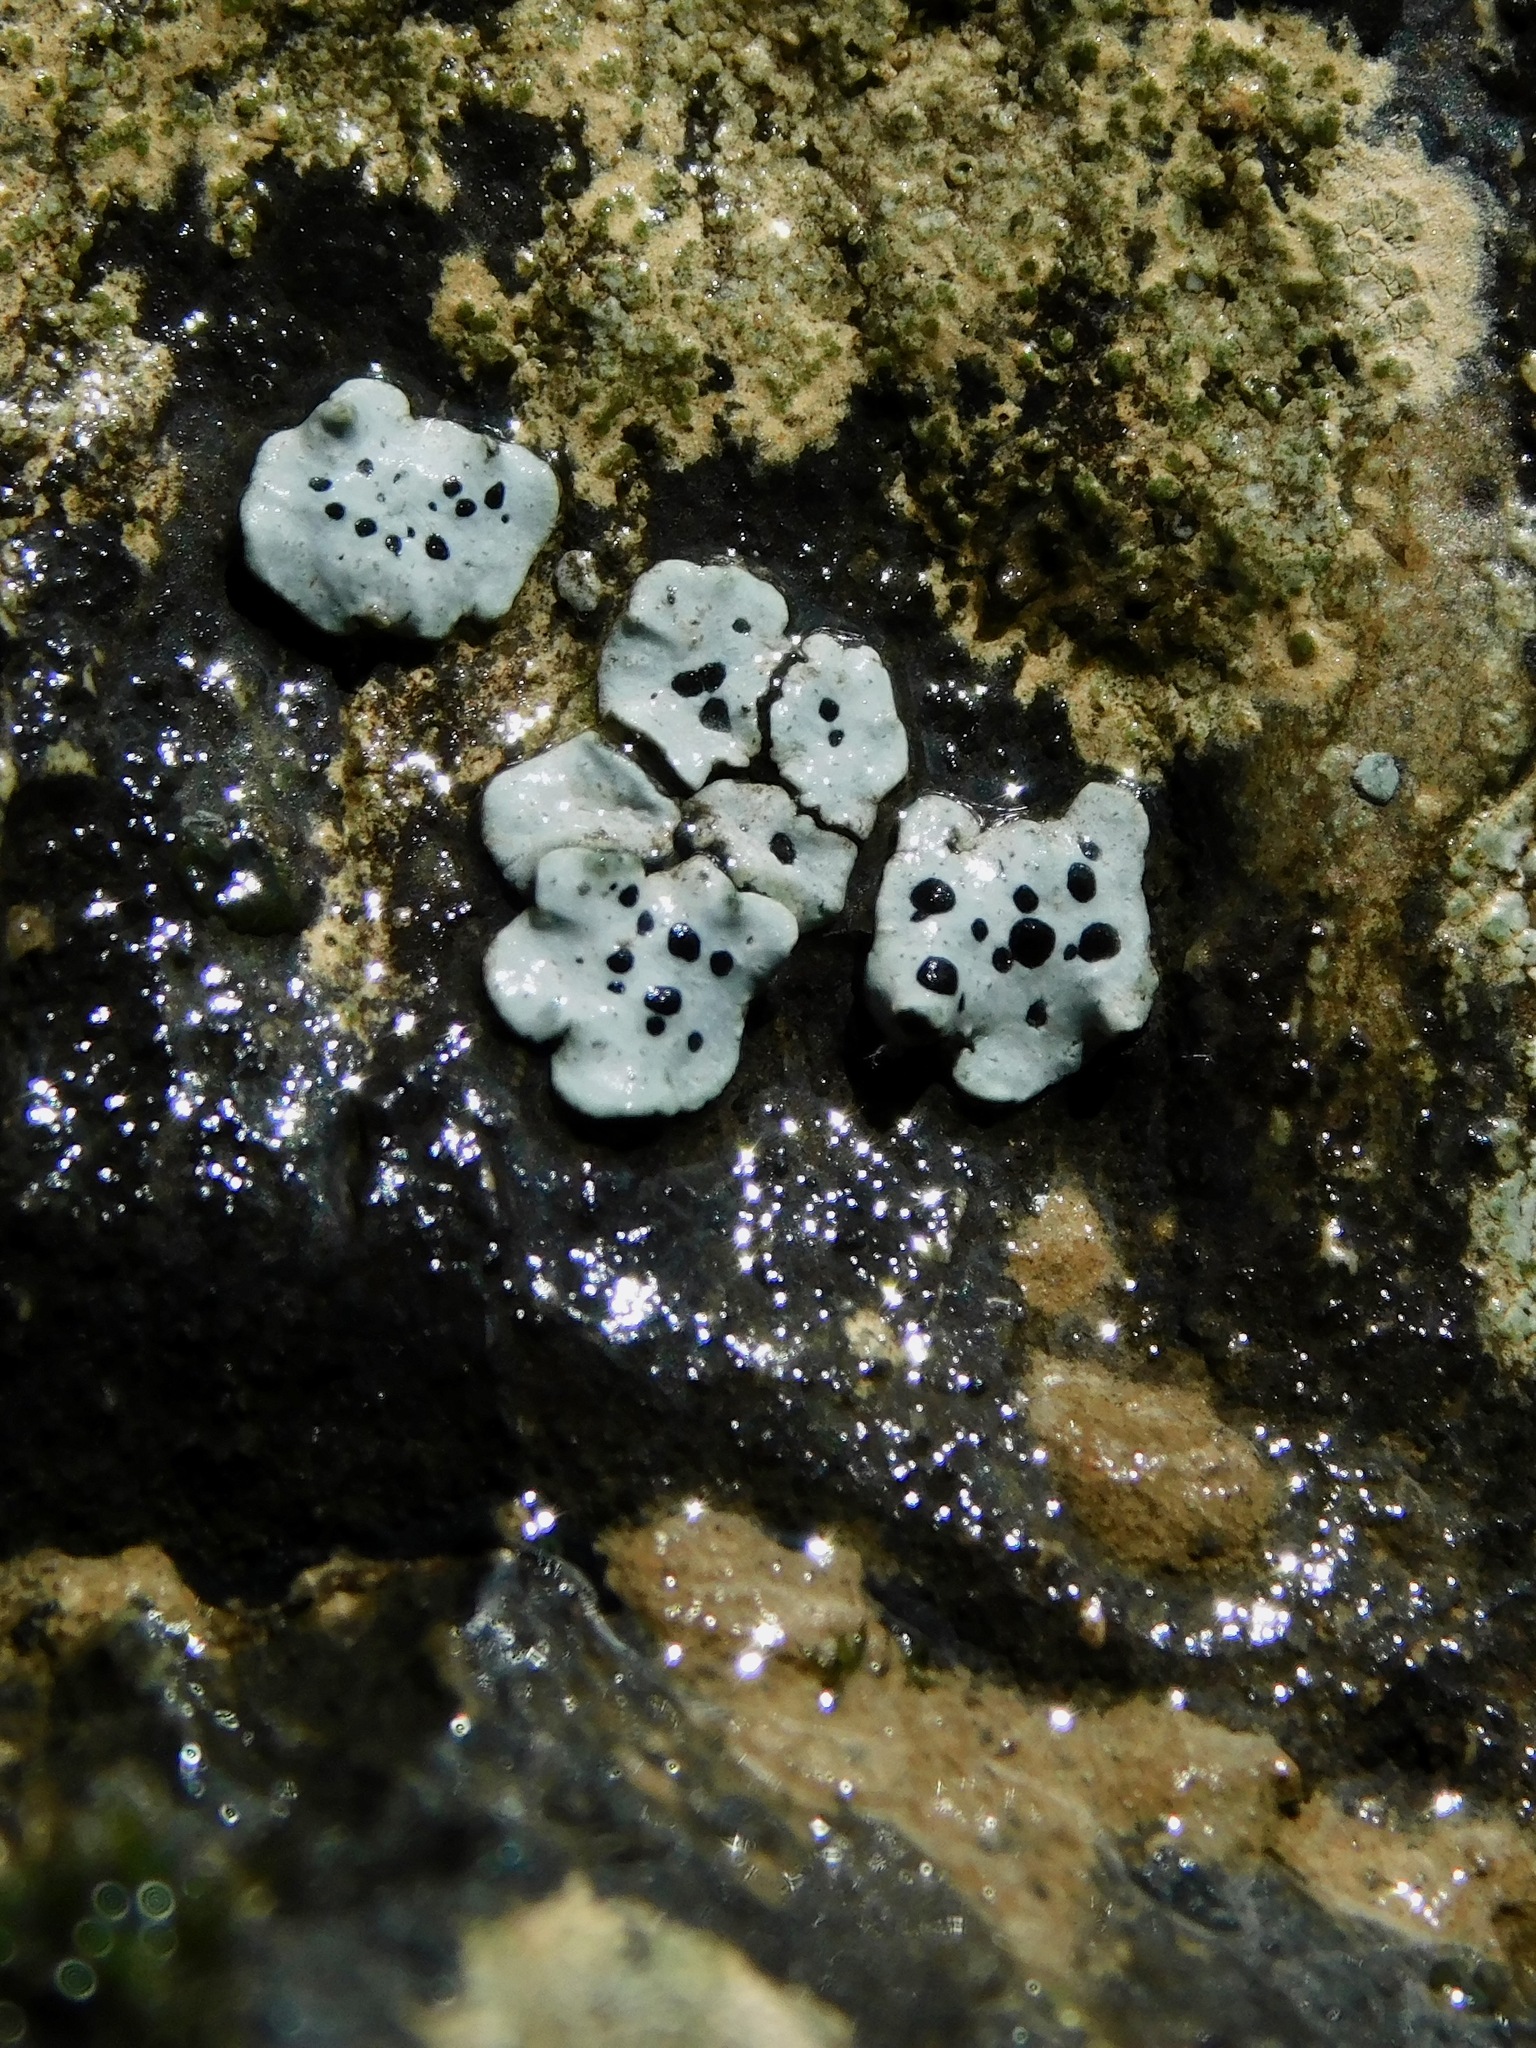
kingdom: Fungi
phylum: Ascomycota
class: Lecanoromycetes
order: Caliciales
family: Caliciaceae
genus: Dermiscellum
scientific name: Dermiscellum oulocheilum
